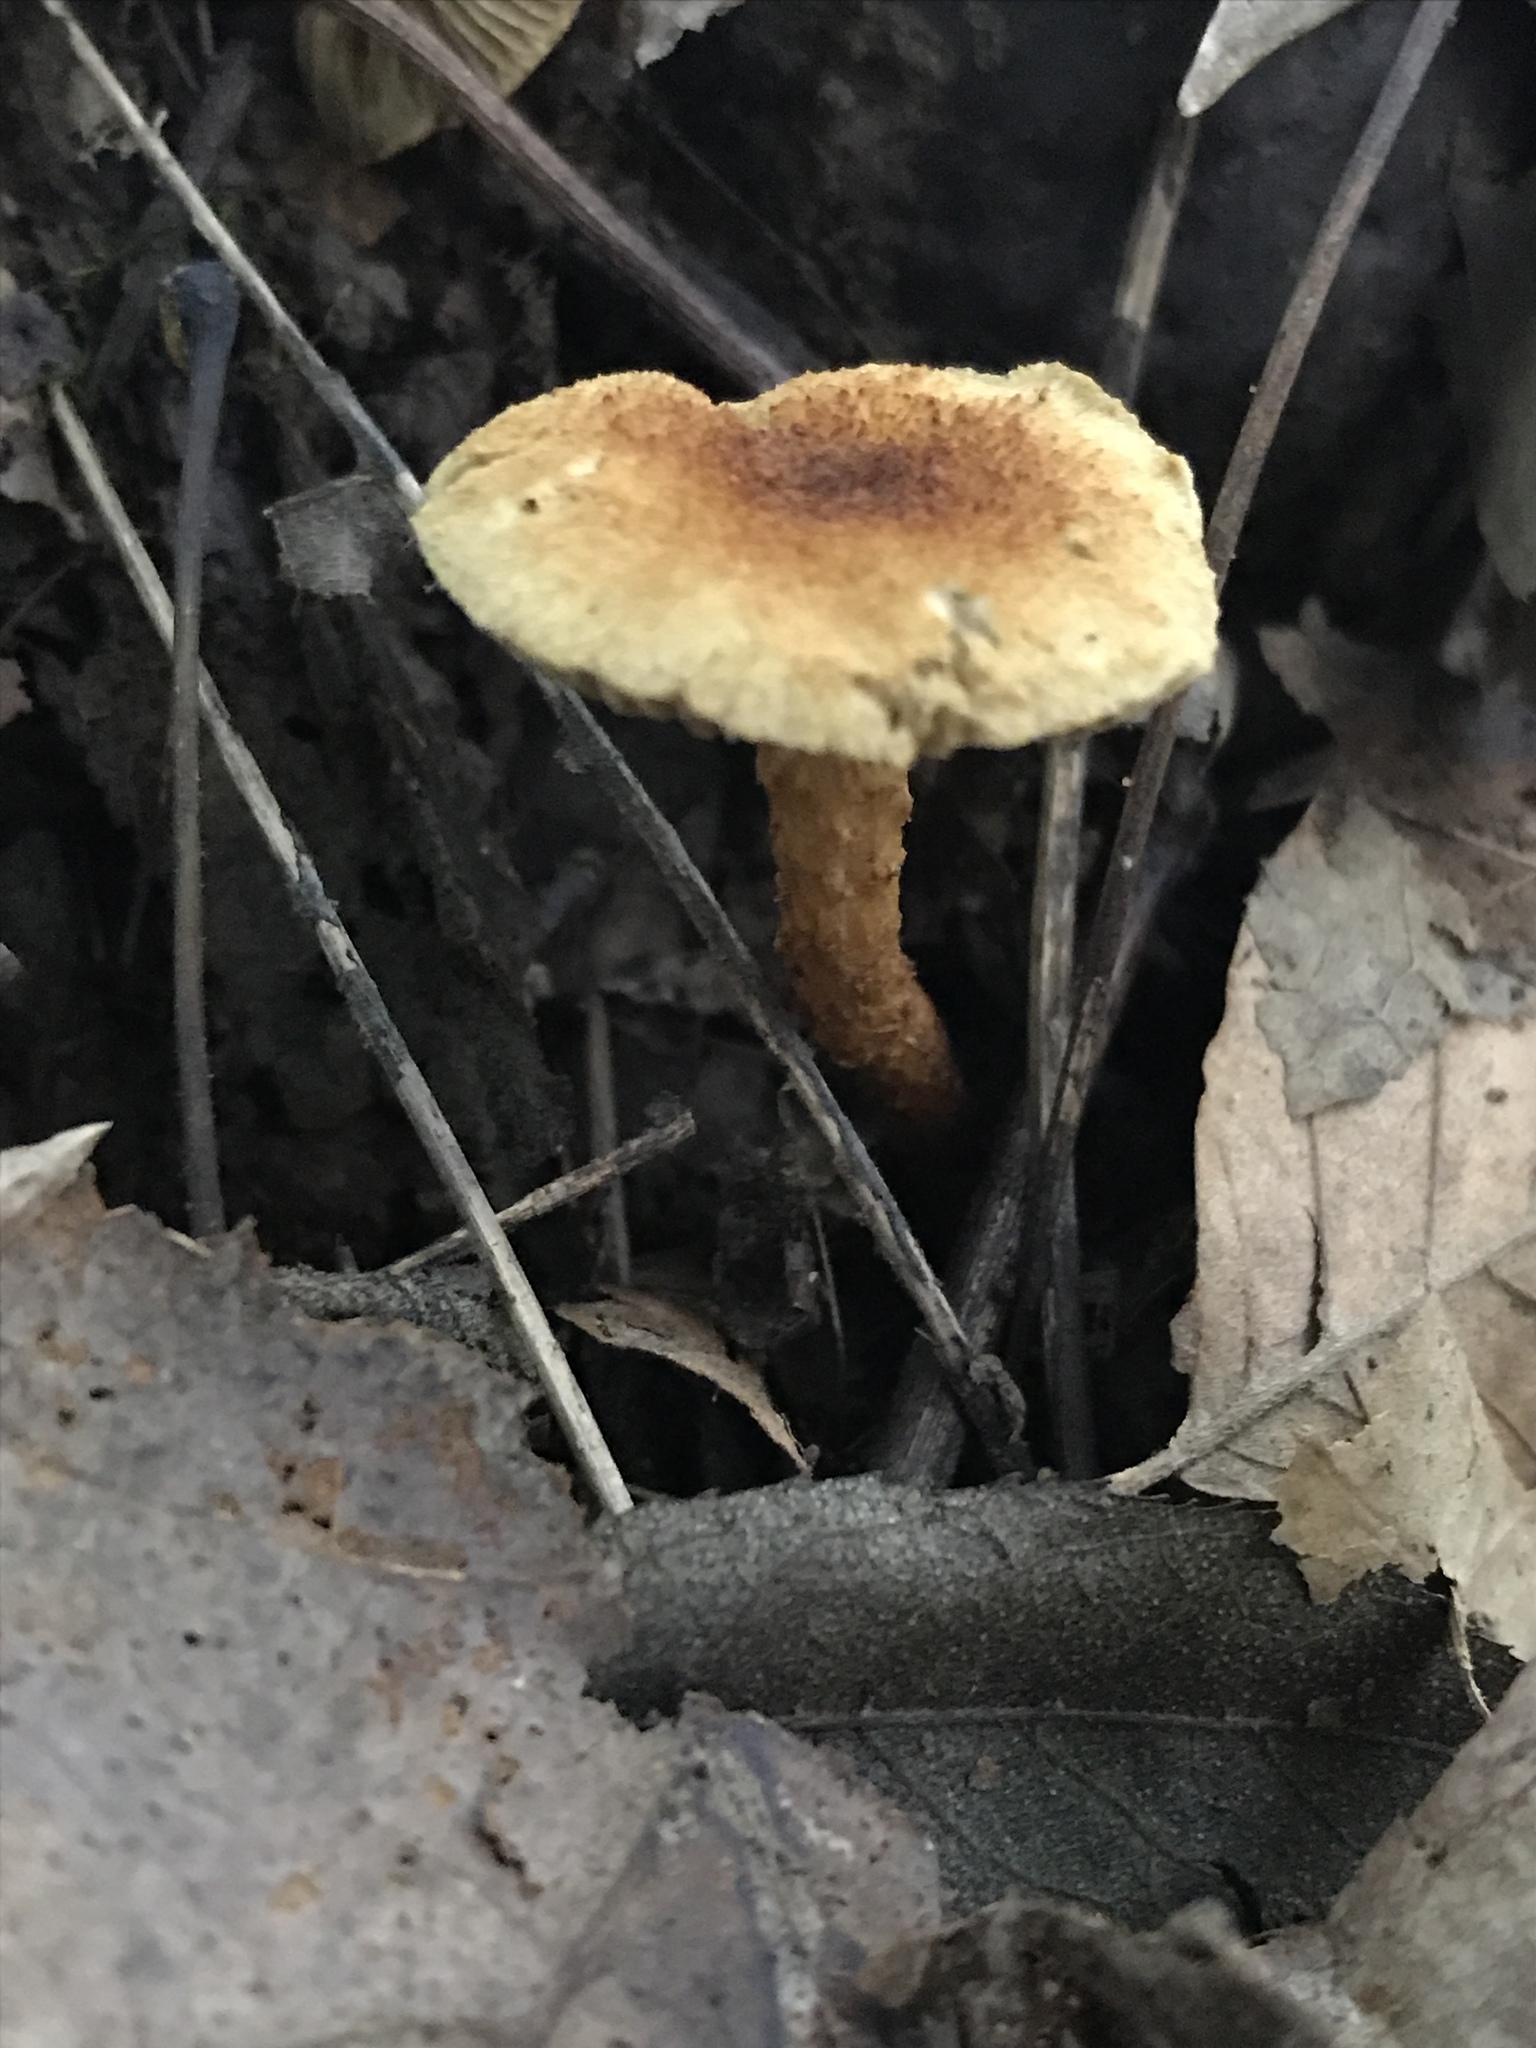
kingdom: Fungi
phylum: Basidiomycota
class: Agaricomycetes
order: Agaricales
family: Inocybaceae
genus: Mallocybe
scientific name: Mallocybe unicolor
